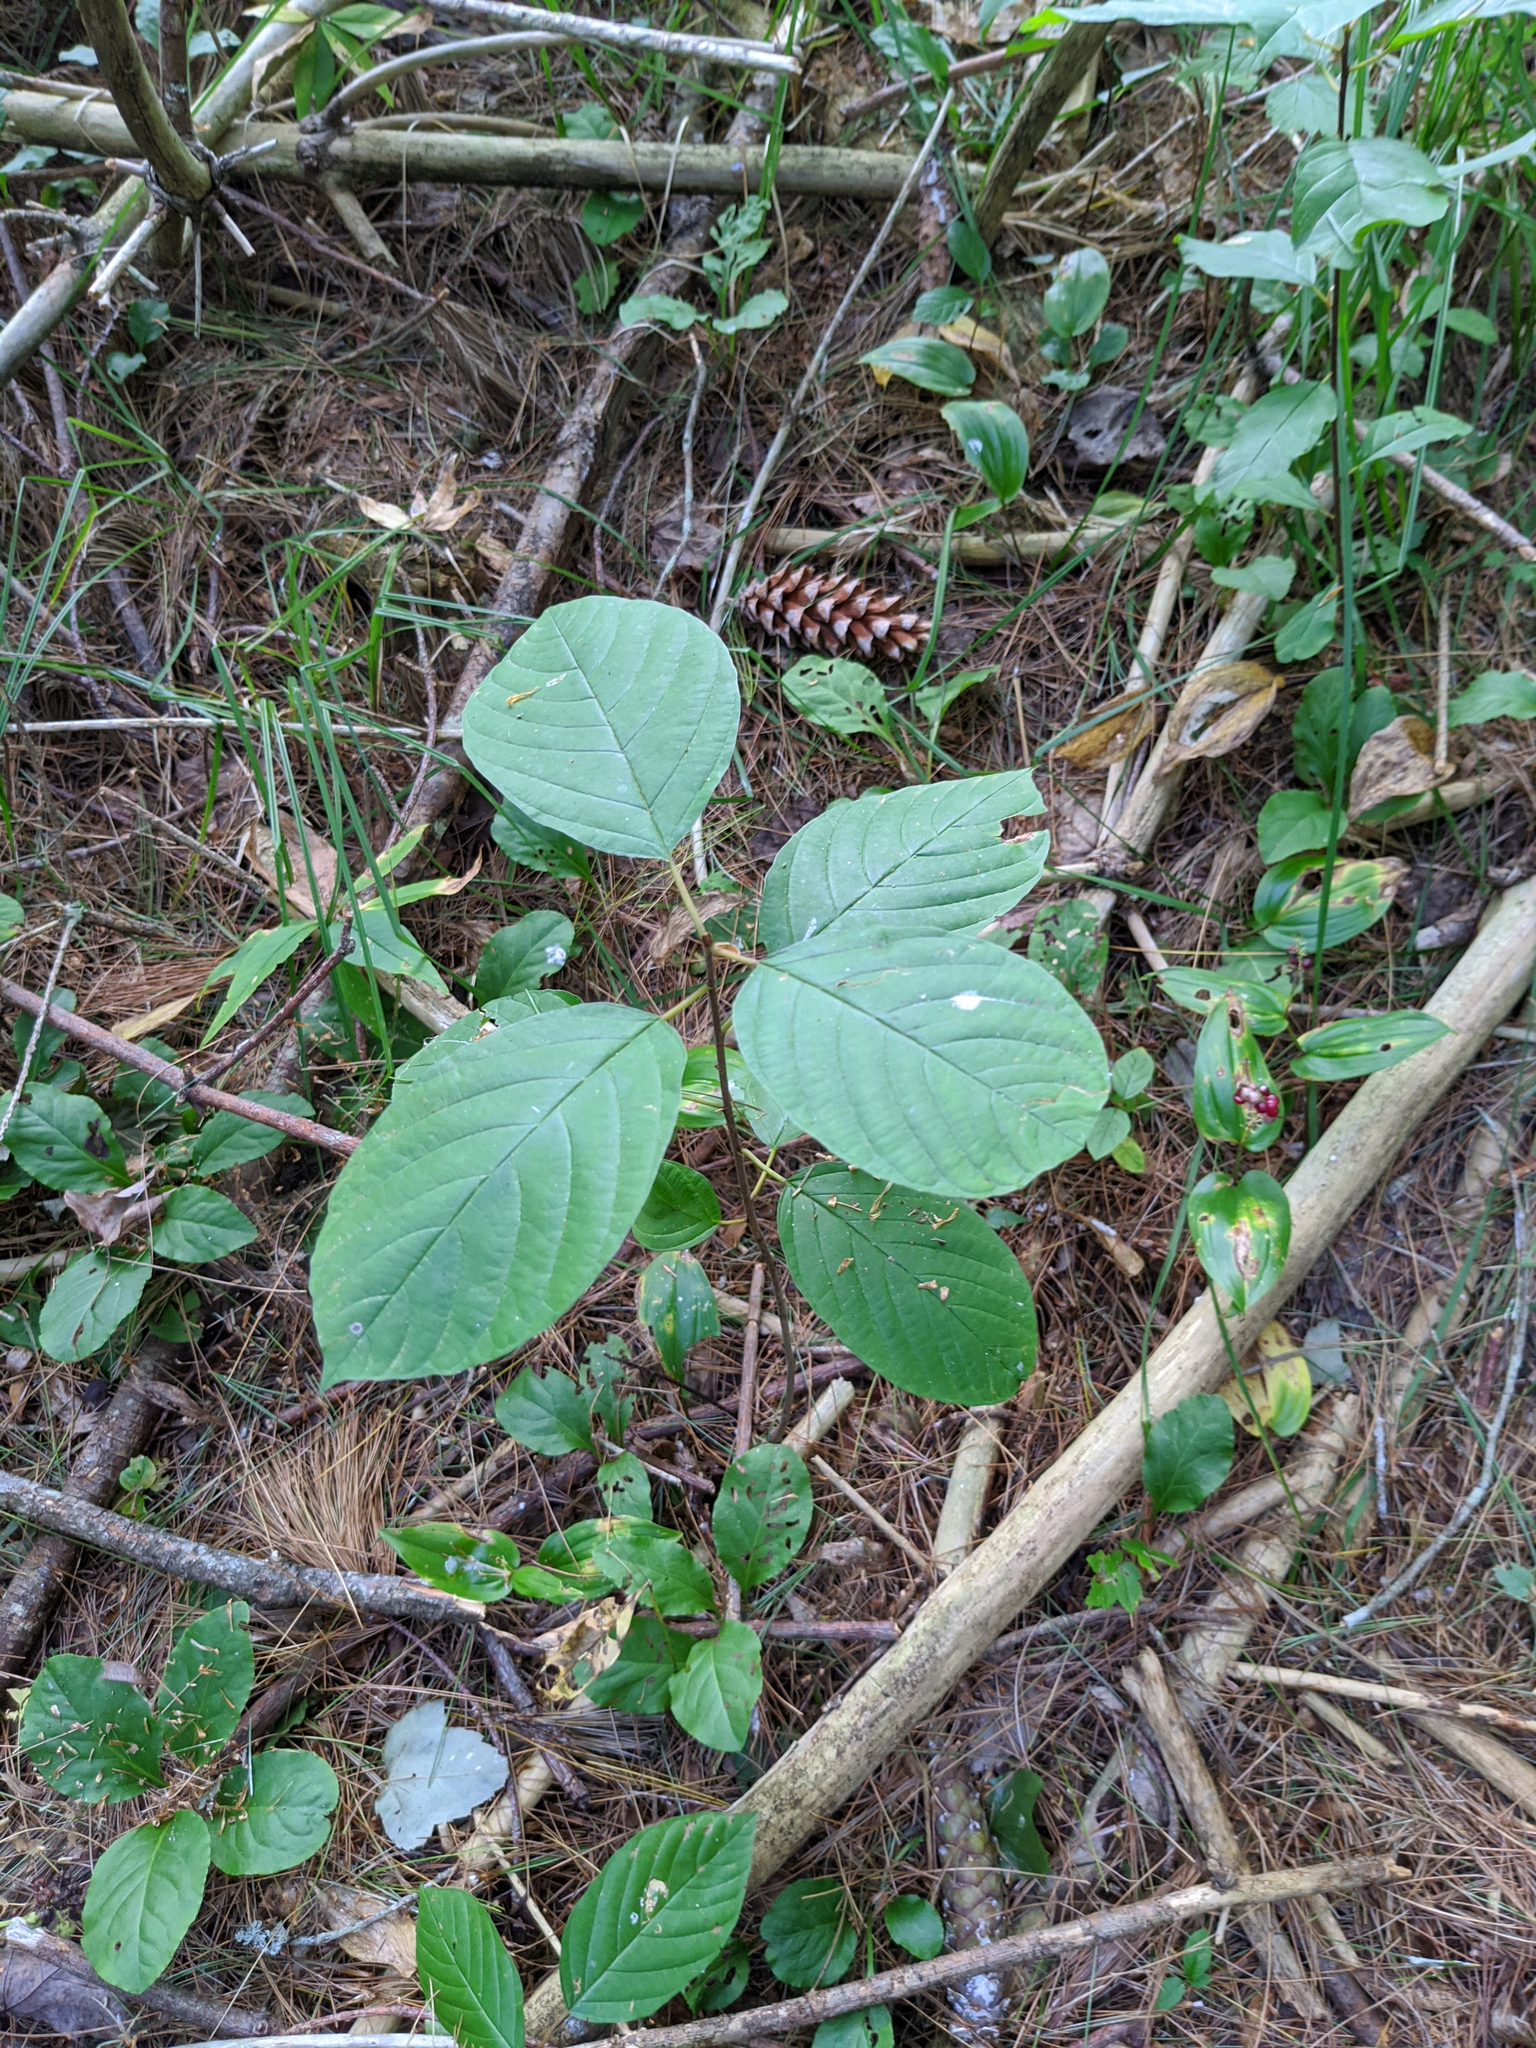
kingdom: Plantae
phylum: Tracheophyta
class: Magnoliopsida
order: Rosales
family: Rhamnaceae
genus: Frangula
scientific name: Frangula alnus
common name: Alder buckthorn
